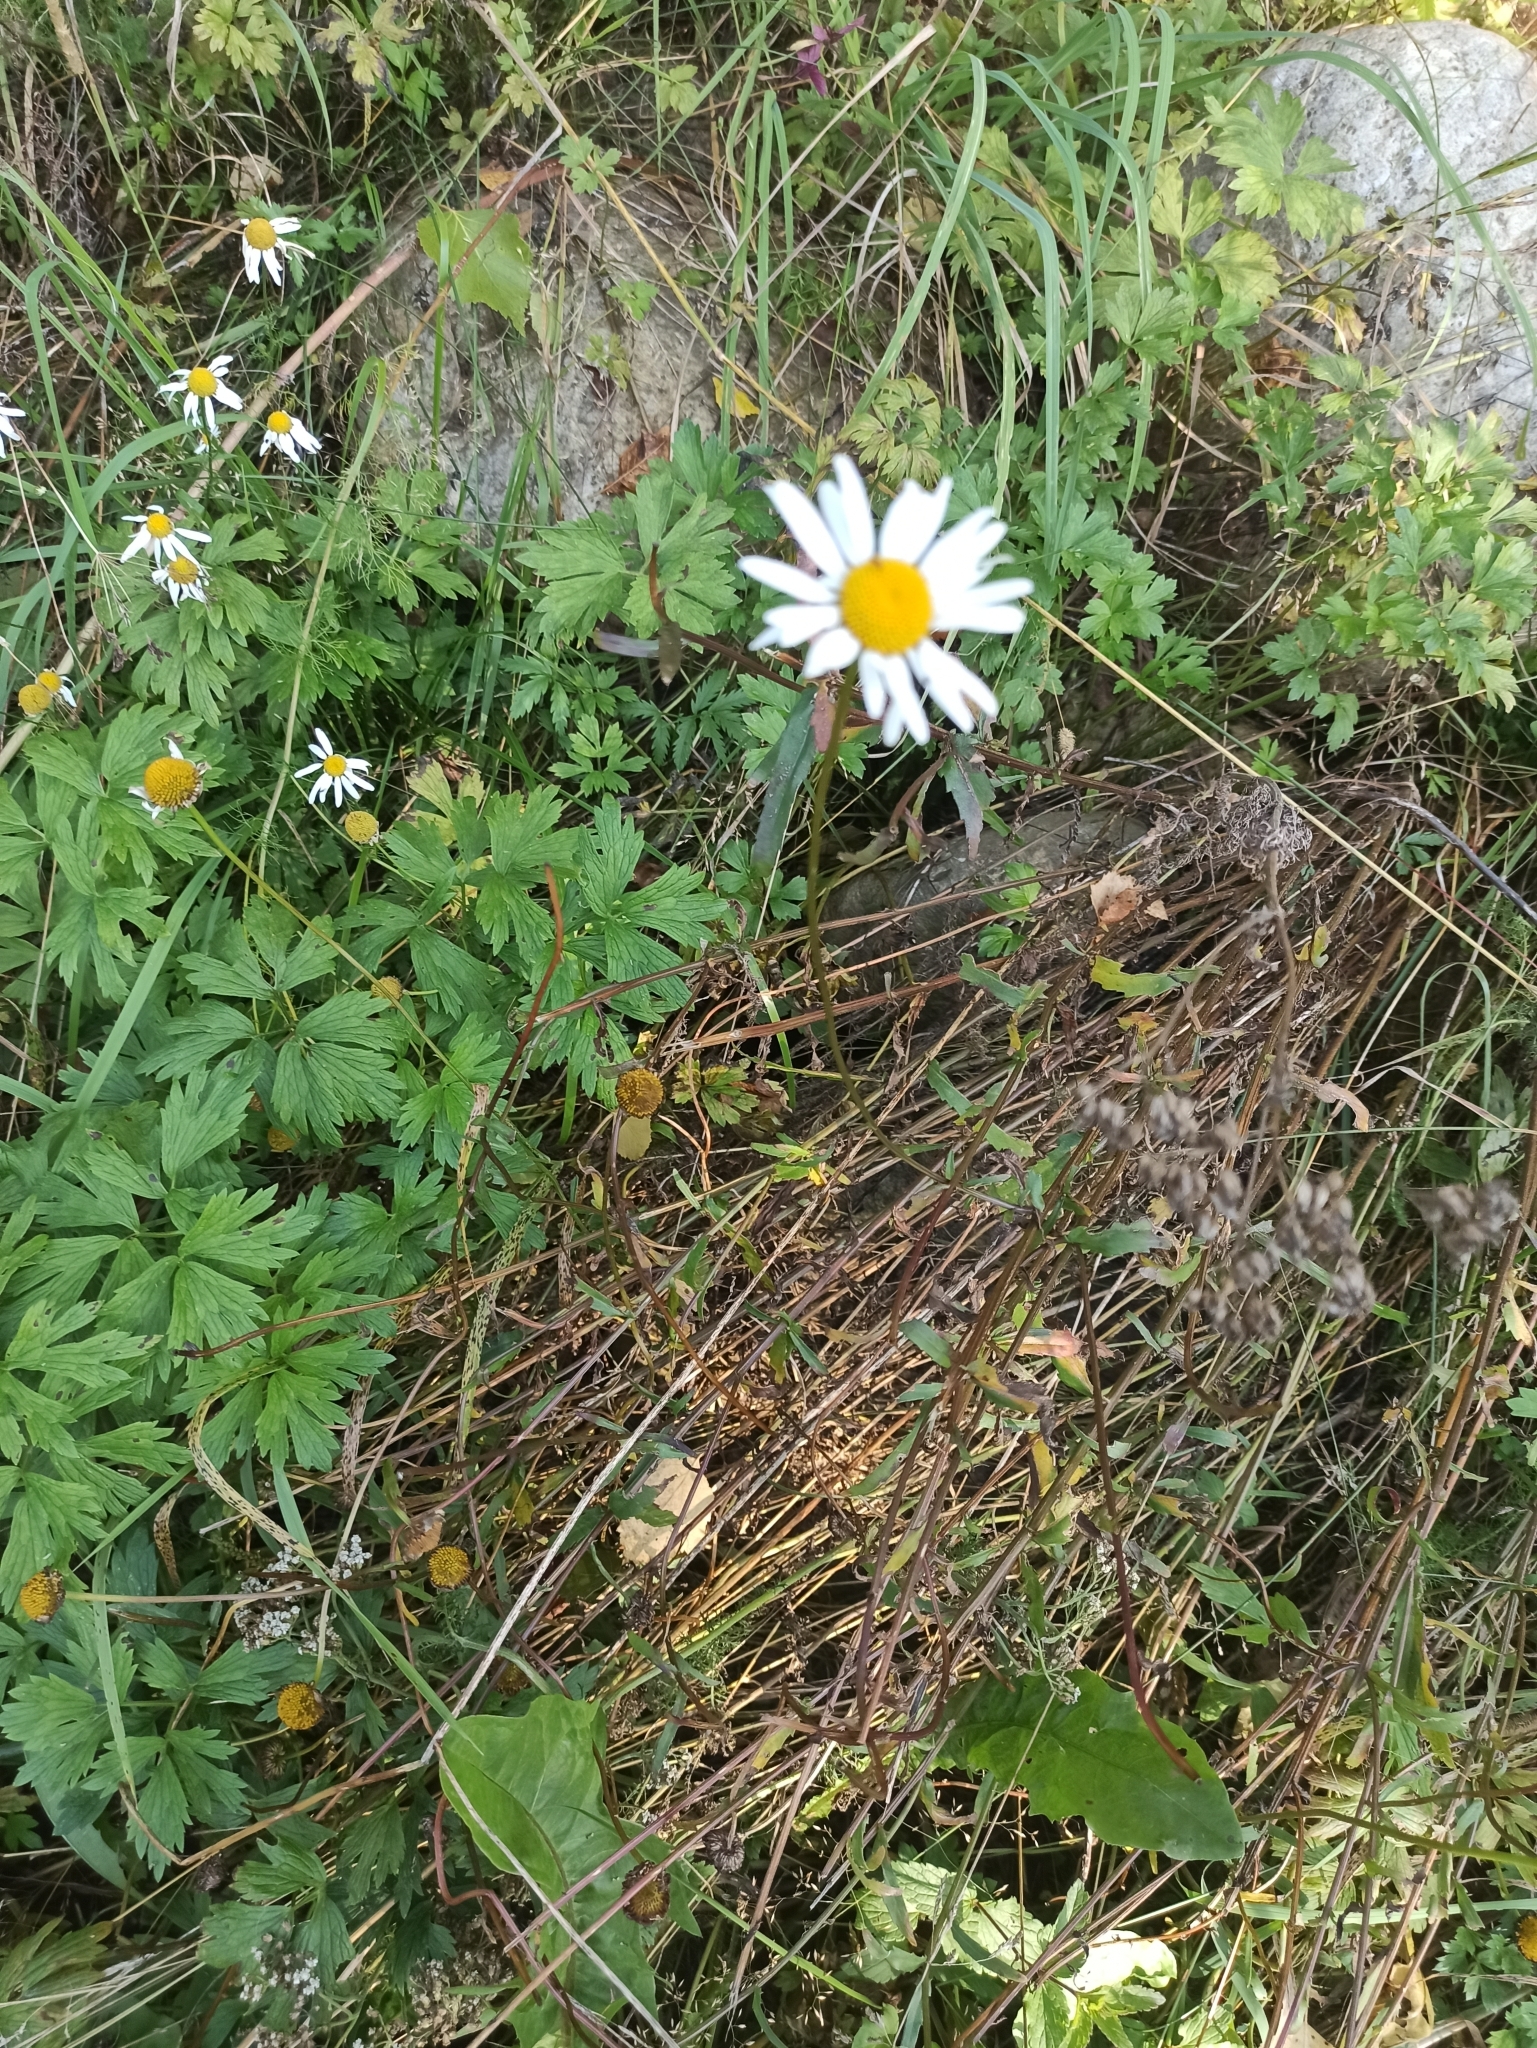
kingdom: Plantae
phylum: Tracheophyta
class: Magnoliopsida
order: Asterales
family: Asteraceae
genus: Leucanthemum
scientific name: Leucanthemum ircutianum
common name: Daisy
